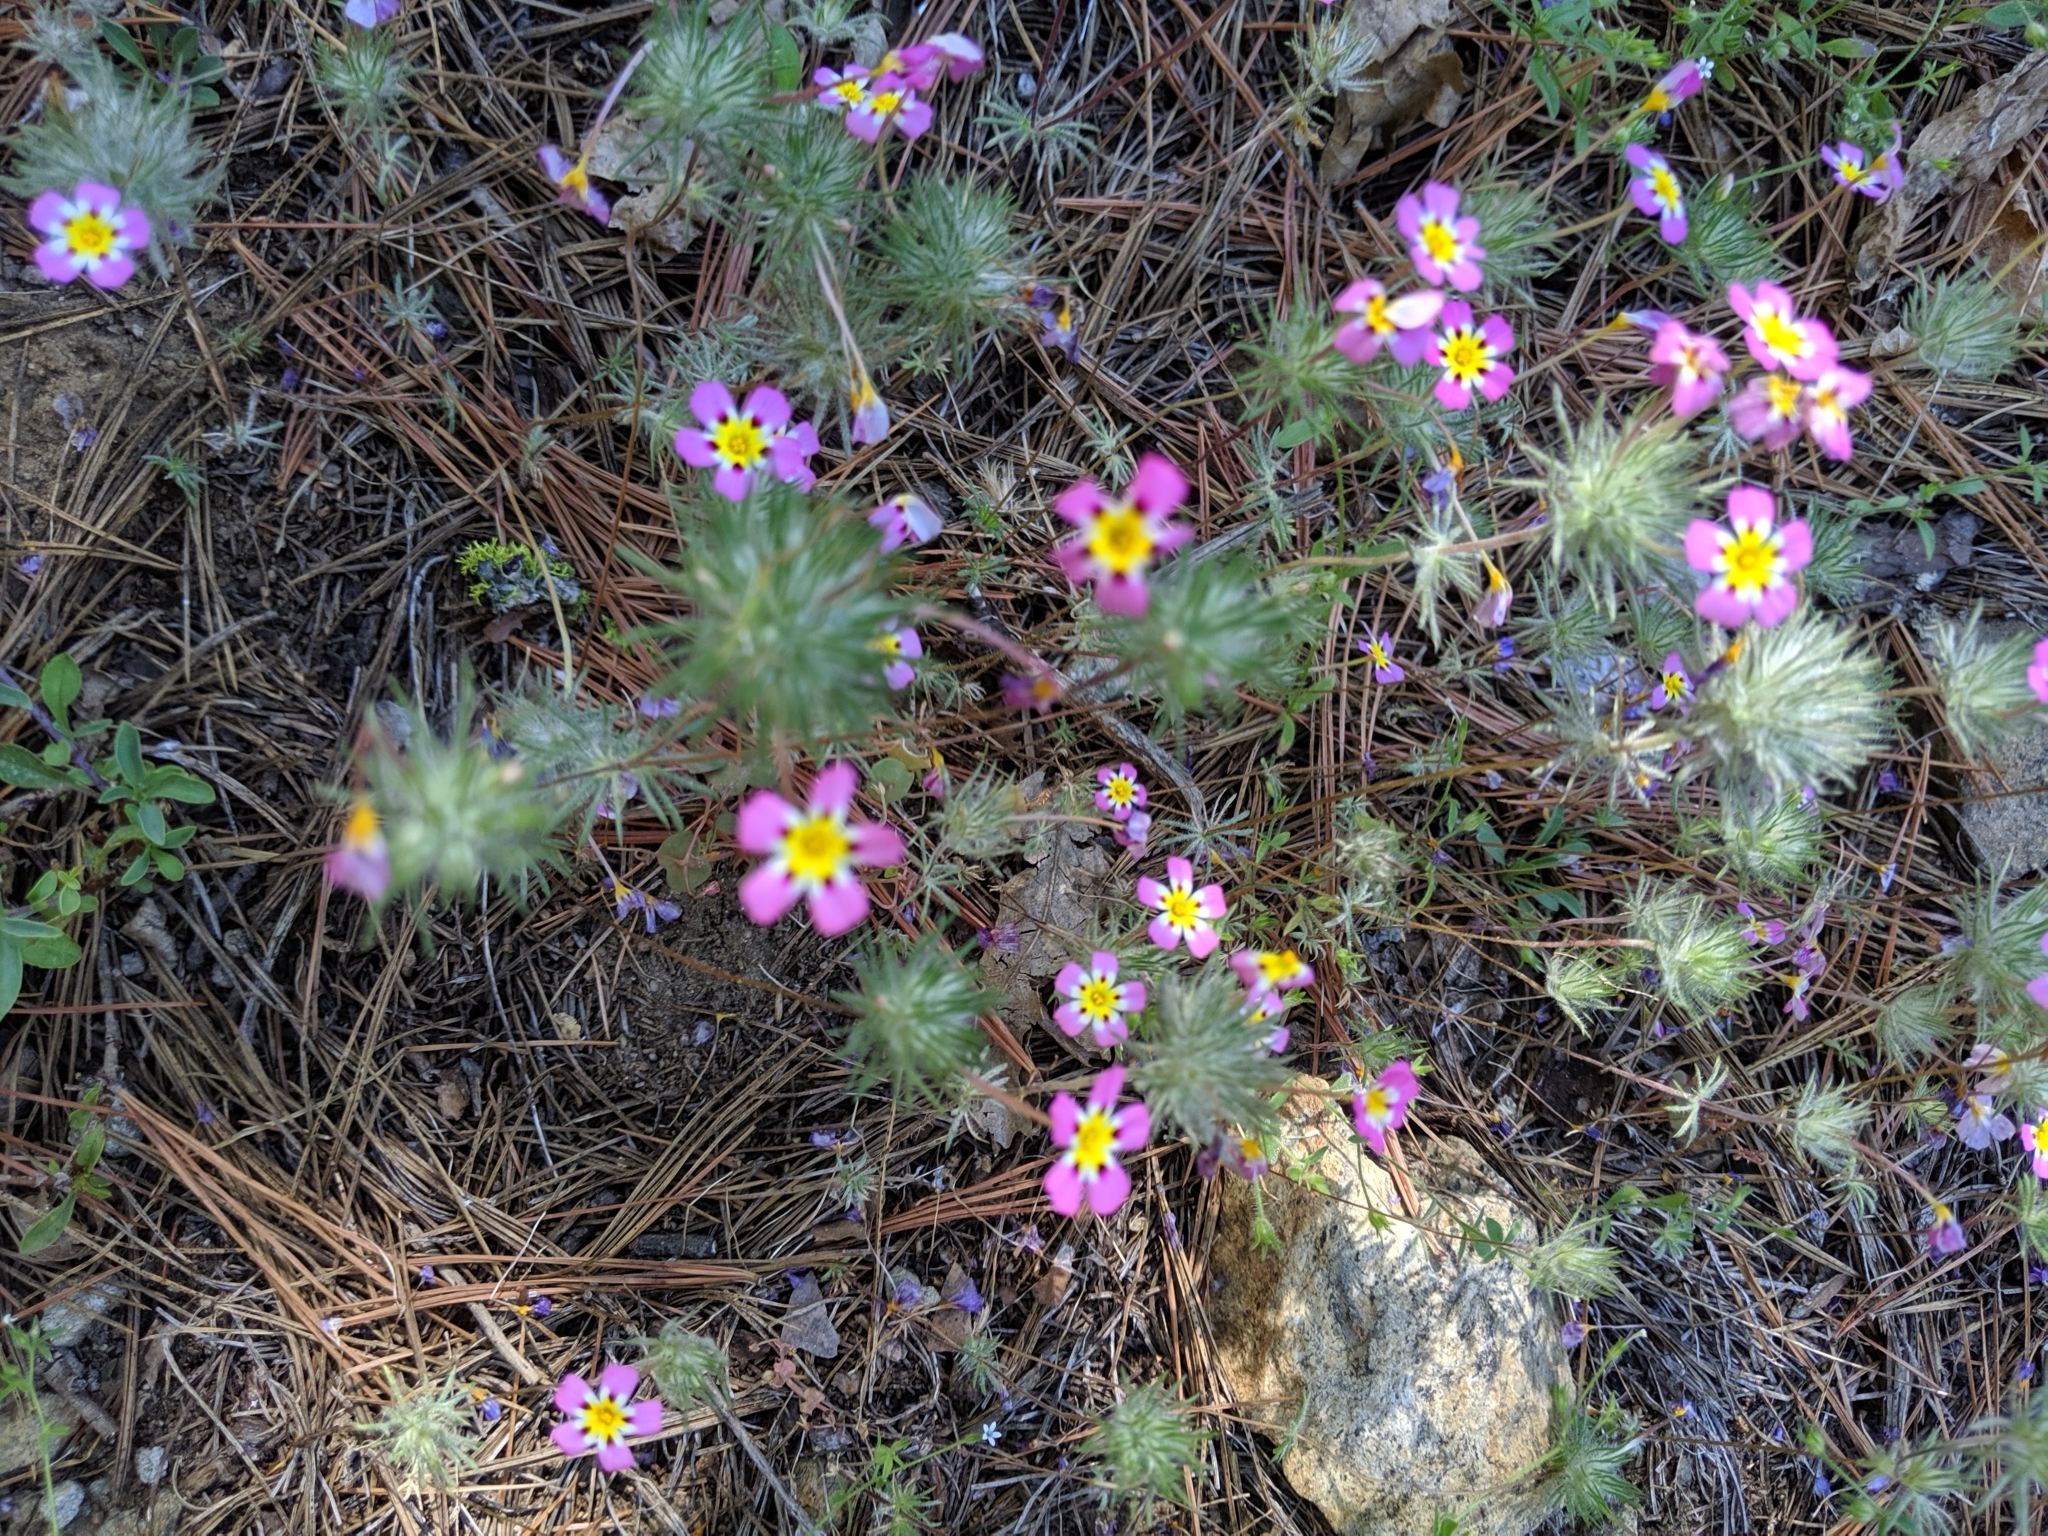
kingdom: Plantae
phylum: Tracheophyta
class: Magnoliopsida
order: Ericales
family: Polemoniaceae
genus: Leptosiphon
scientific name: Leptosiphon ciliatus
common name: Whiskerbrush
